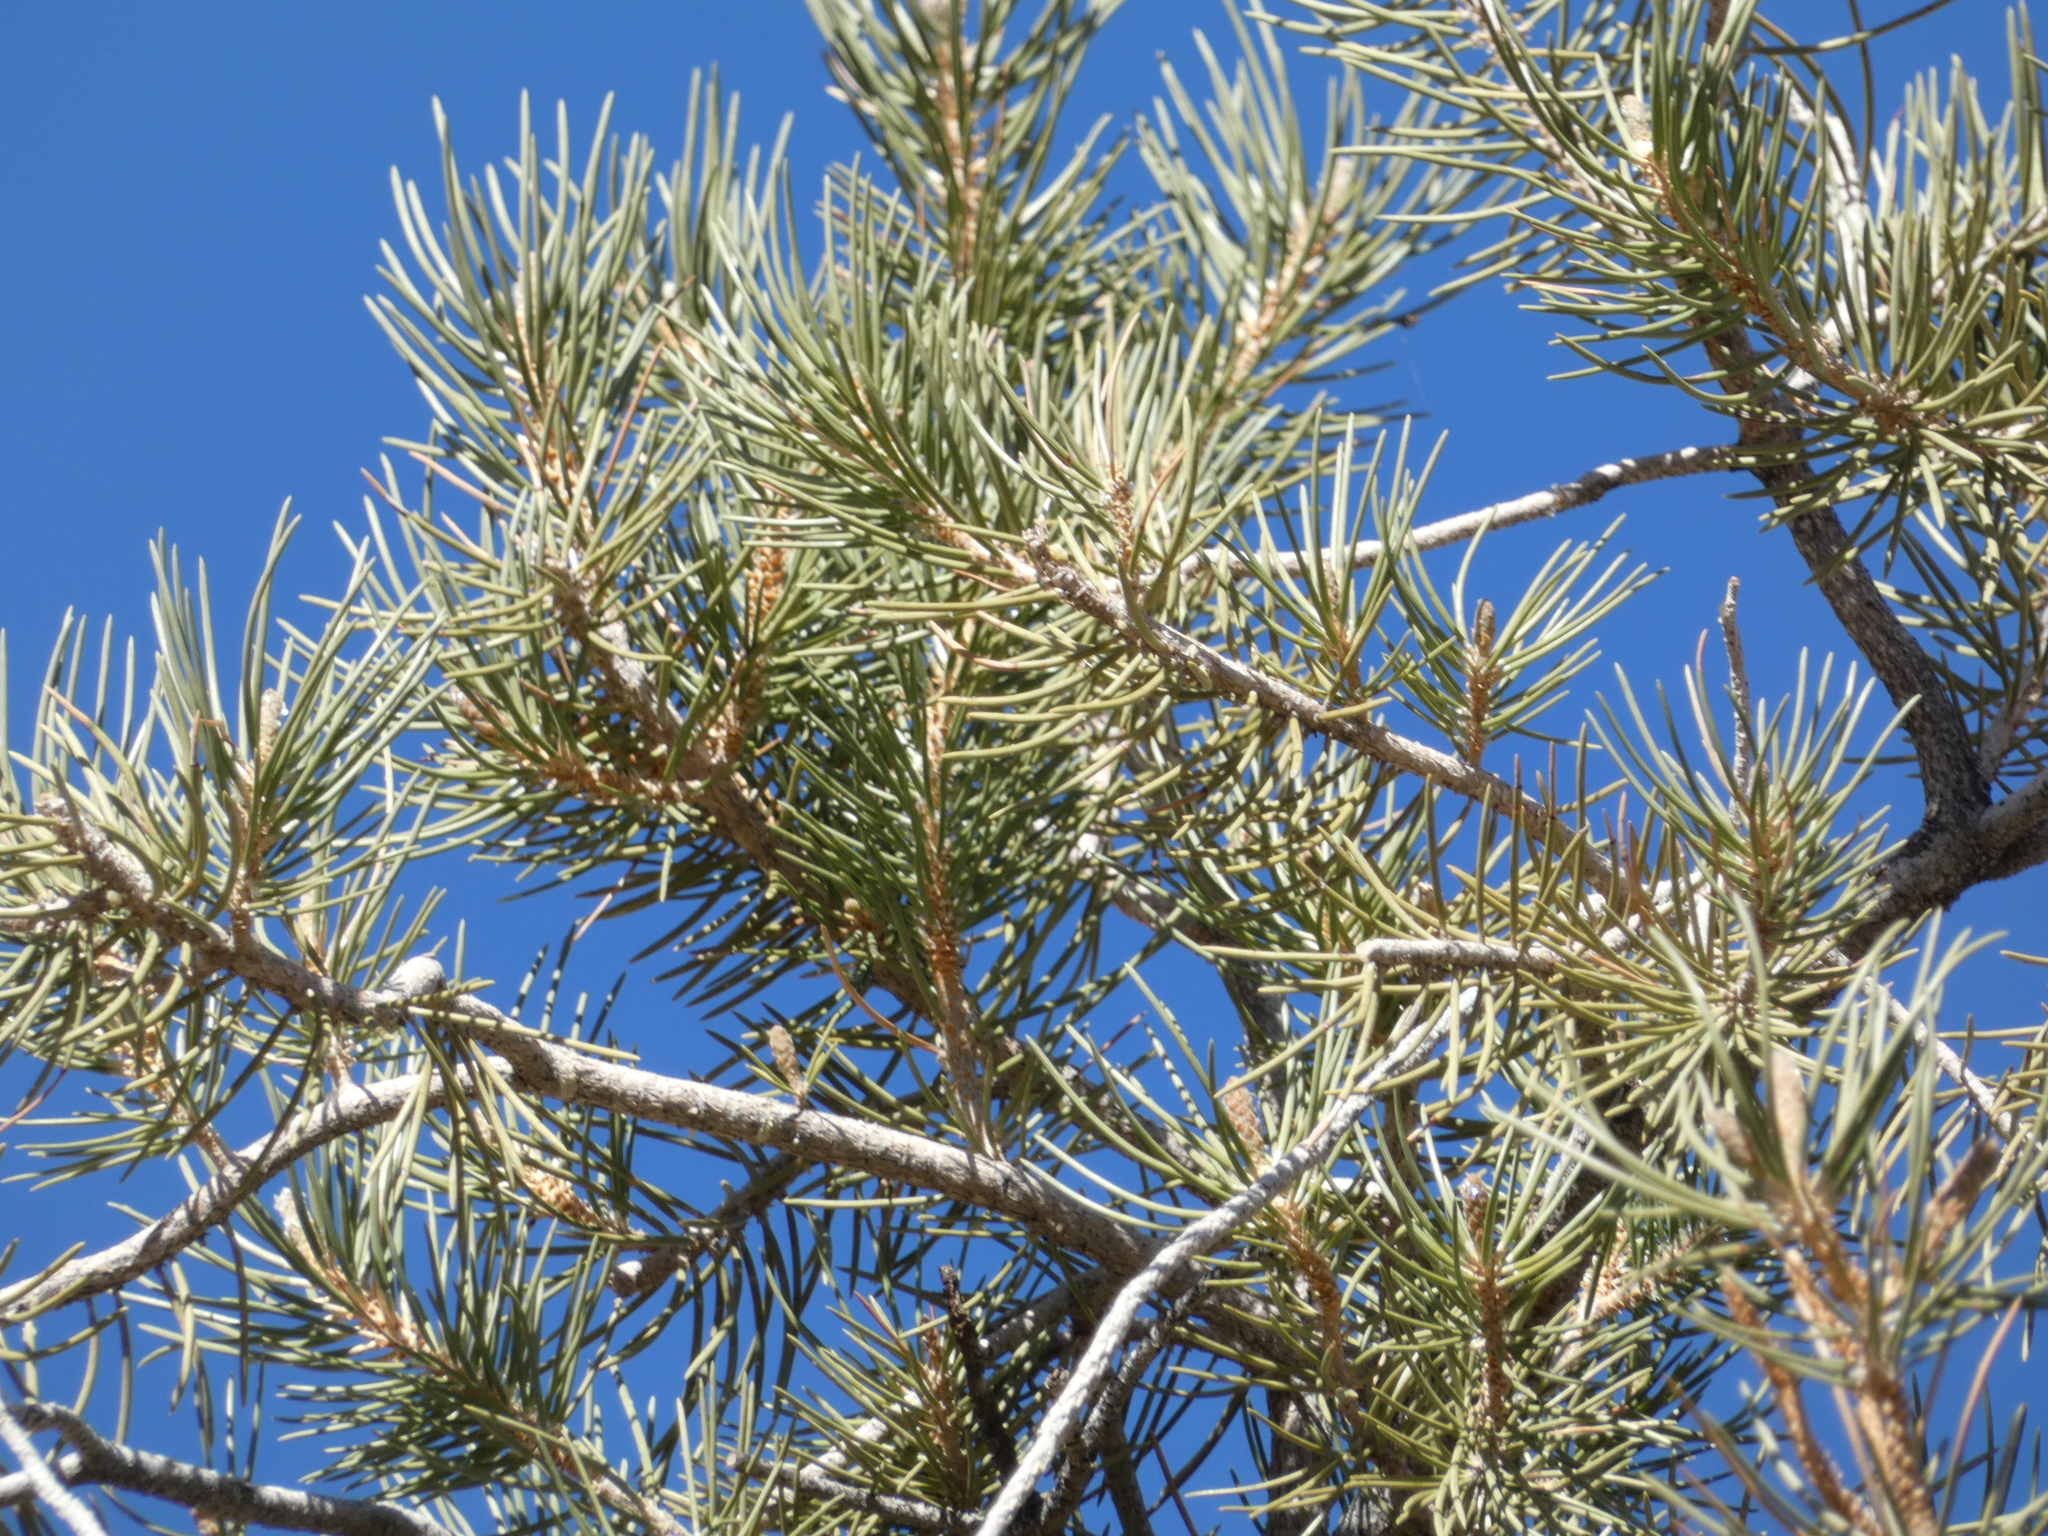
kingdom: Plantae
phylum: Tracheophyta
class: Pinopsida
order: Pinales
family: Pinaceae
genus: Pinus
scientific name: Pinus monophylla
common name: One-leaved nut pine
